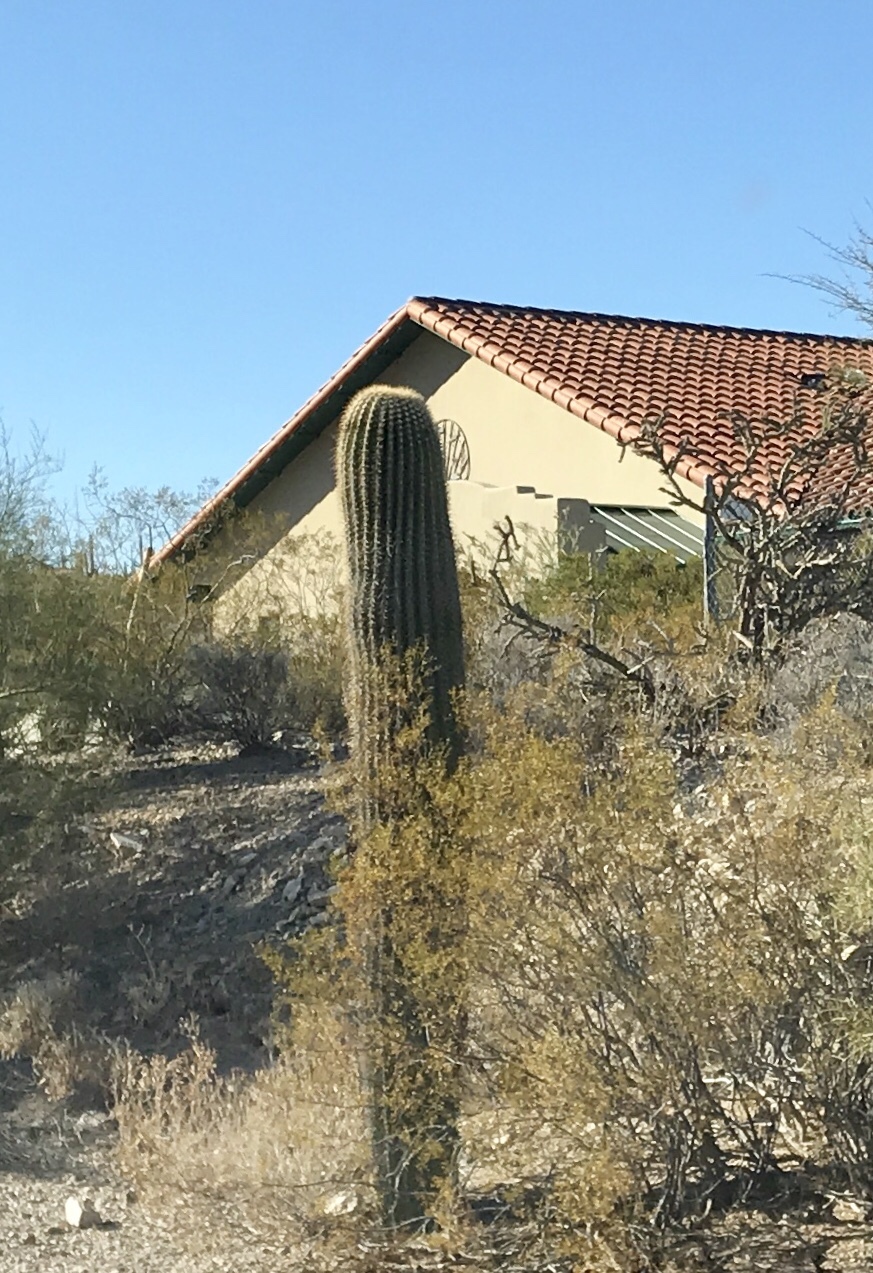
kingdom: Plantae
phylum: Tracheophyta
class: Magnoliopsida
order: Caryophyllales
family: Cactaceae
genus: Carnegiea
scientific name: Carnegiea gigantea
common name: Saguaro
